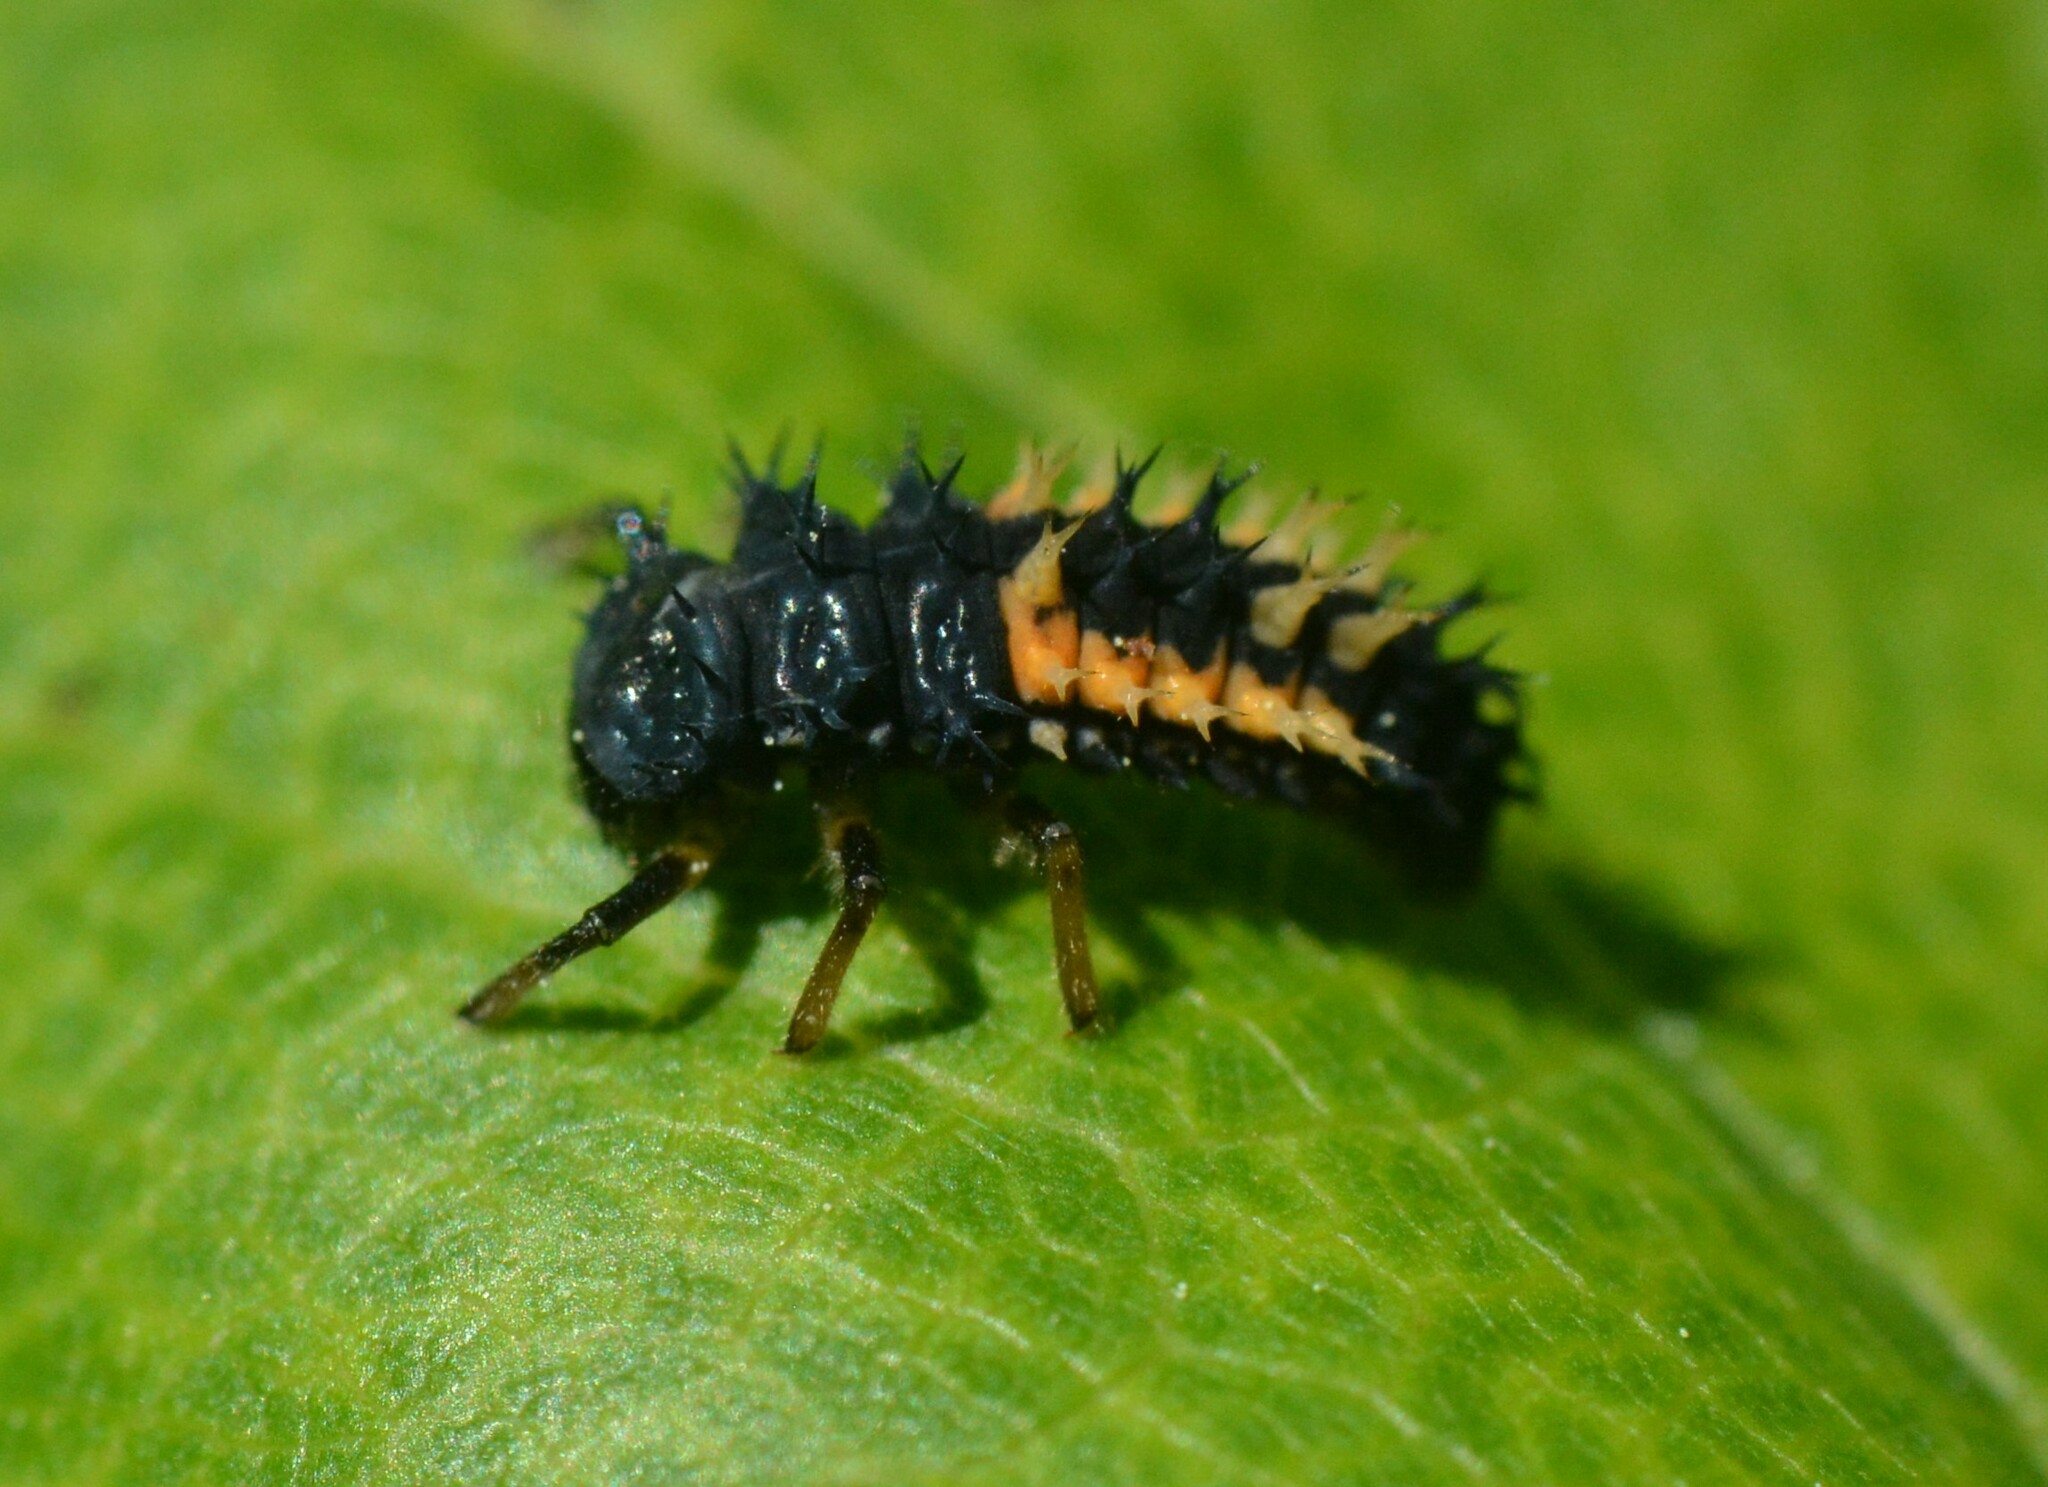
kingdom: Animalia
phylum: Arthropoda
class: Insecta
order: Coleoptera
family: Coccinellidae
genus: Harmonia
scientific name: Harmonia axyridis
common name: Harlequin ladybird
